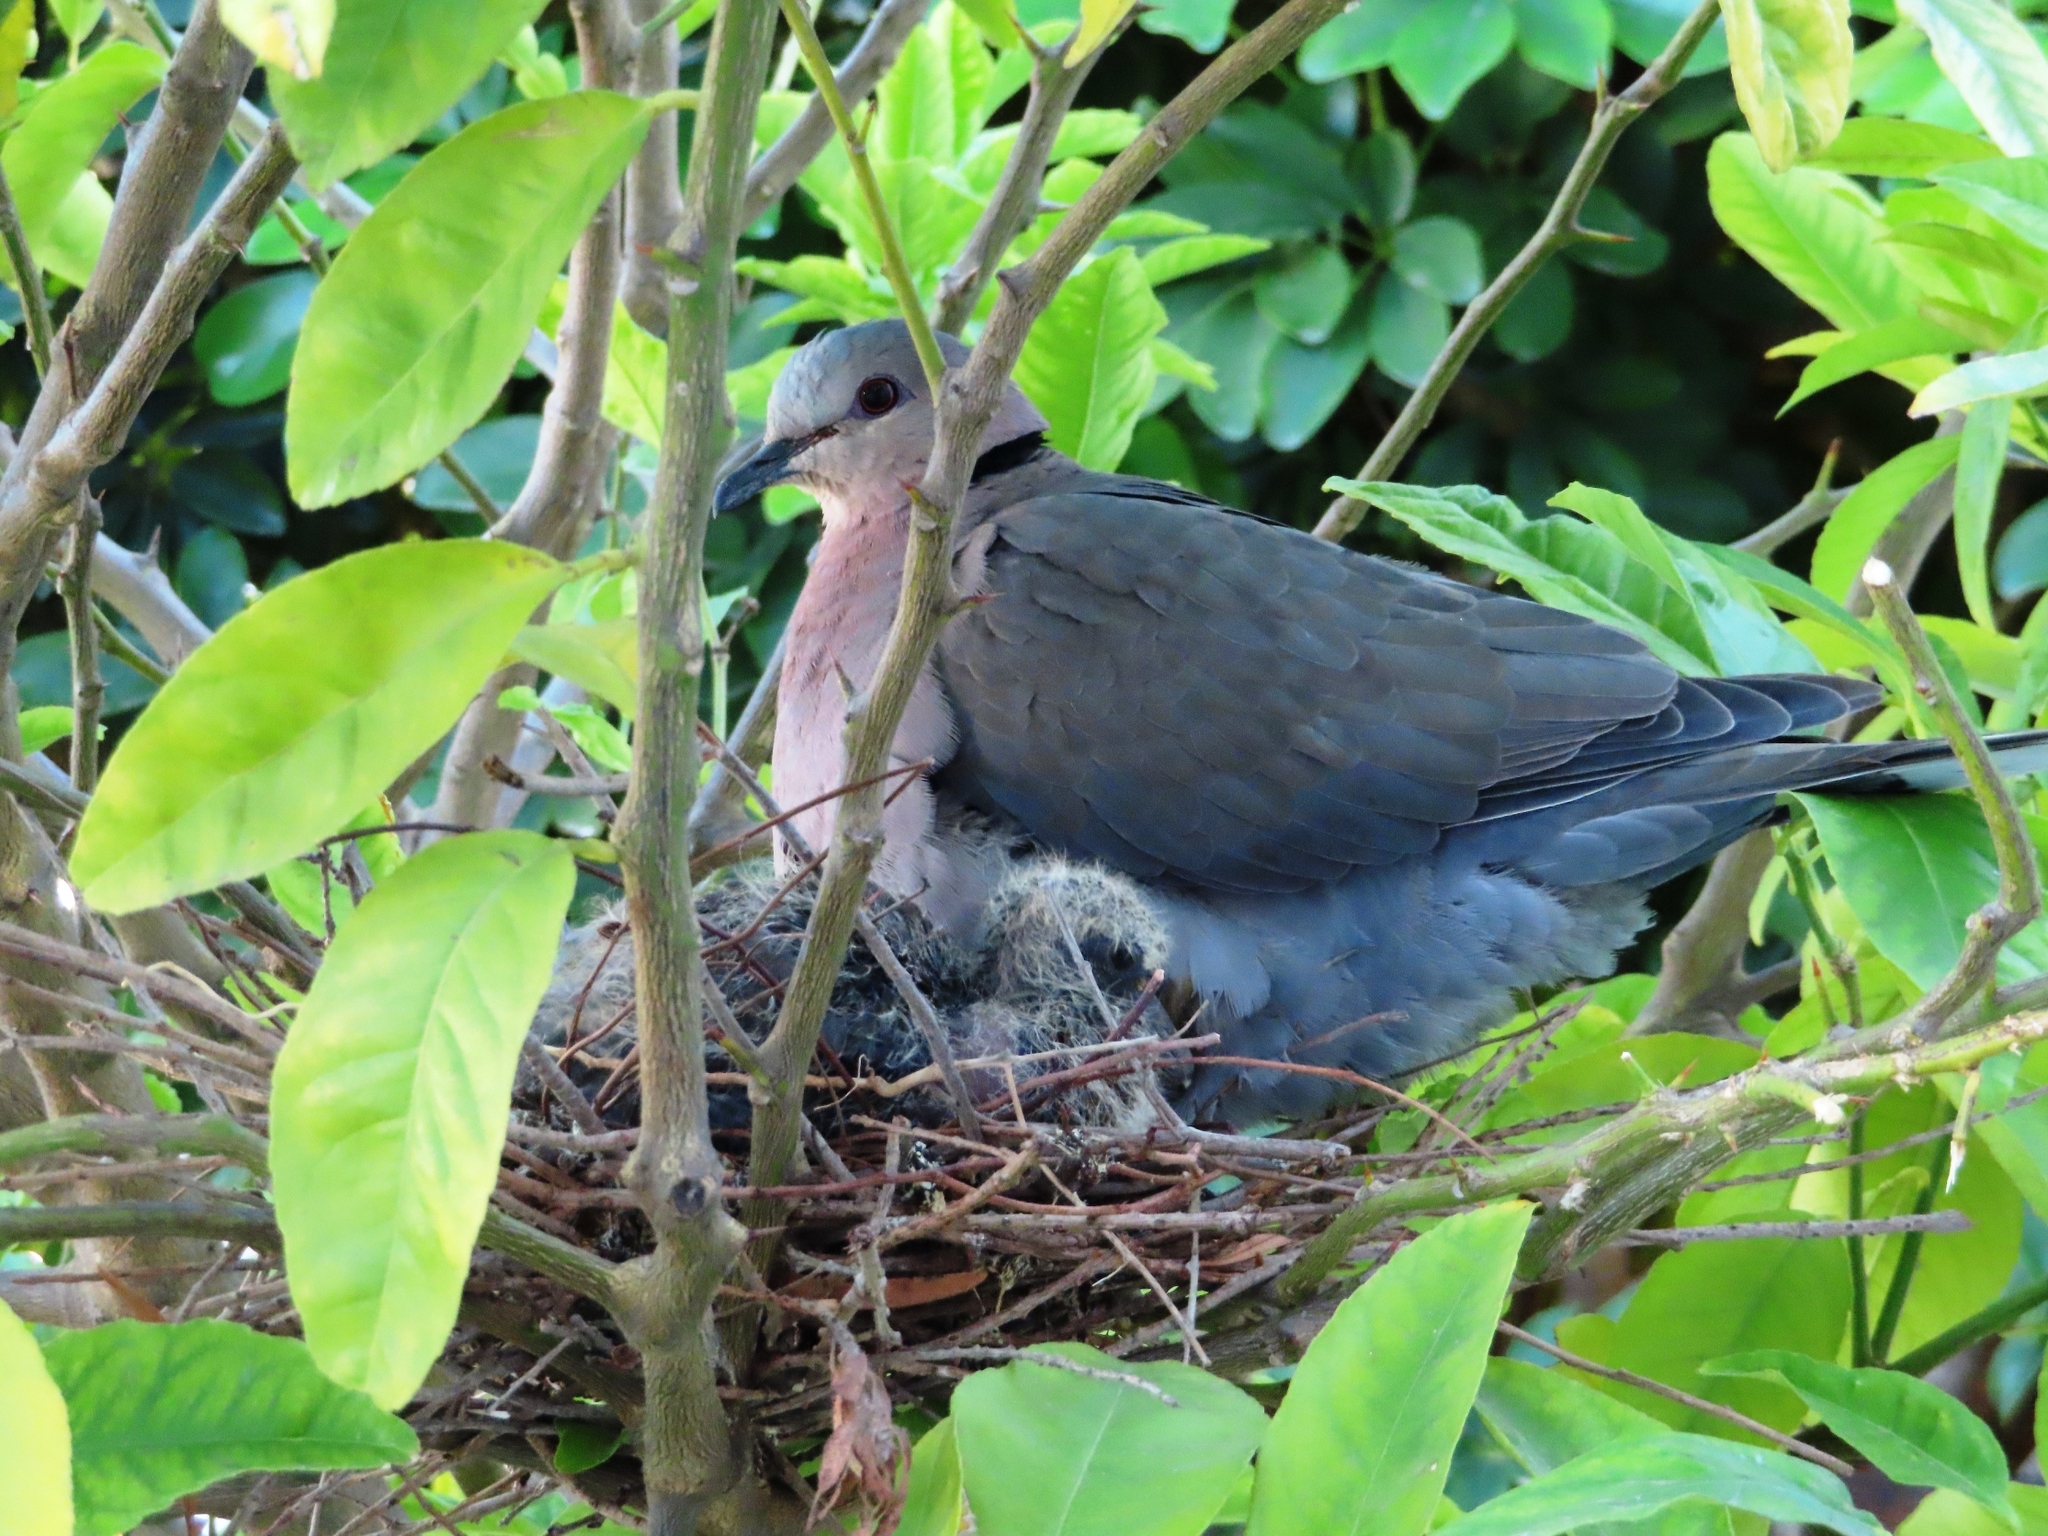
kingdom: Animalia
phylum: Chordata
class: Aves
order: Columbiformes
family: Columbidae
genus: Streptopelia
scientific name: Streptopelia semitorquata
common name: Red-eyed dove
